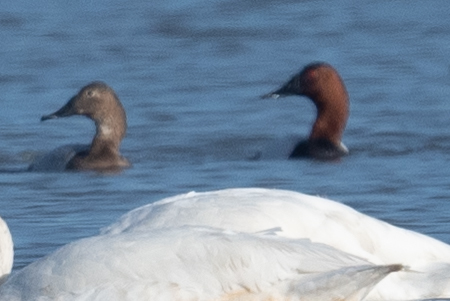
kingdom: Animalia
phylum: Chordata
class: Aves
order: Anseriformes
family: Anatidae
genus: Aythya
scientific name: Aythya valisineria
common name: Canvasback
